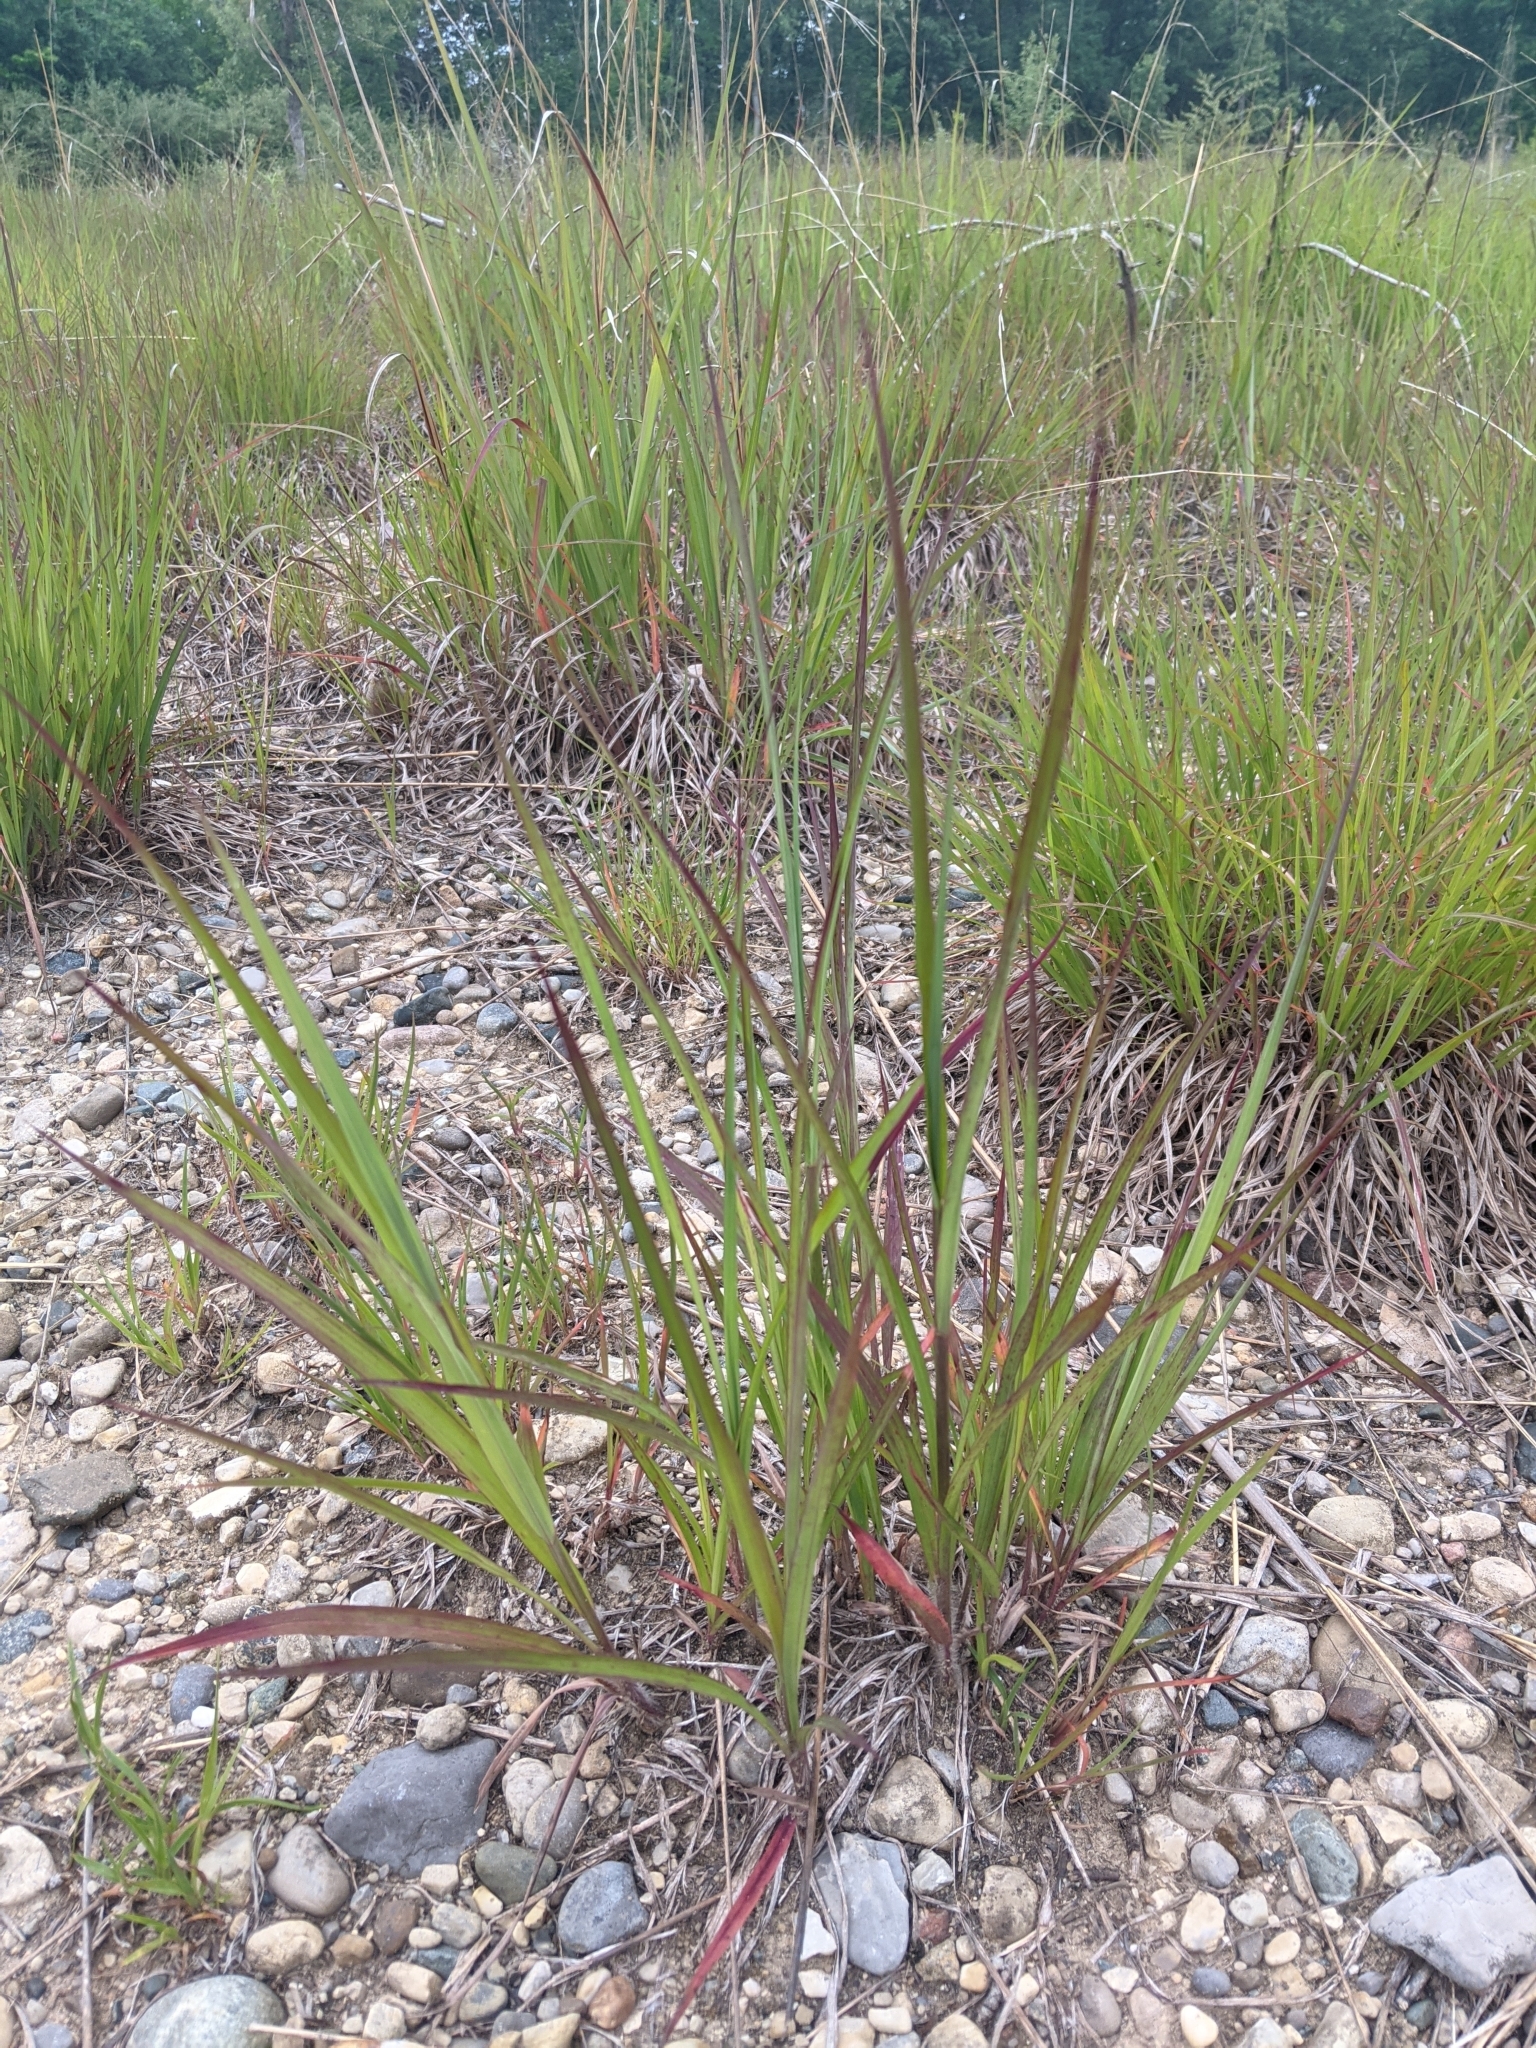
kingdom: Plantae
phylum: Tracheophyta
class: Liliopsida
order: Poales
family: Poaceae
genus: Andropogon
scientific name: Andropogon gerardi
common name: Big bluestem
